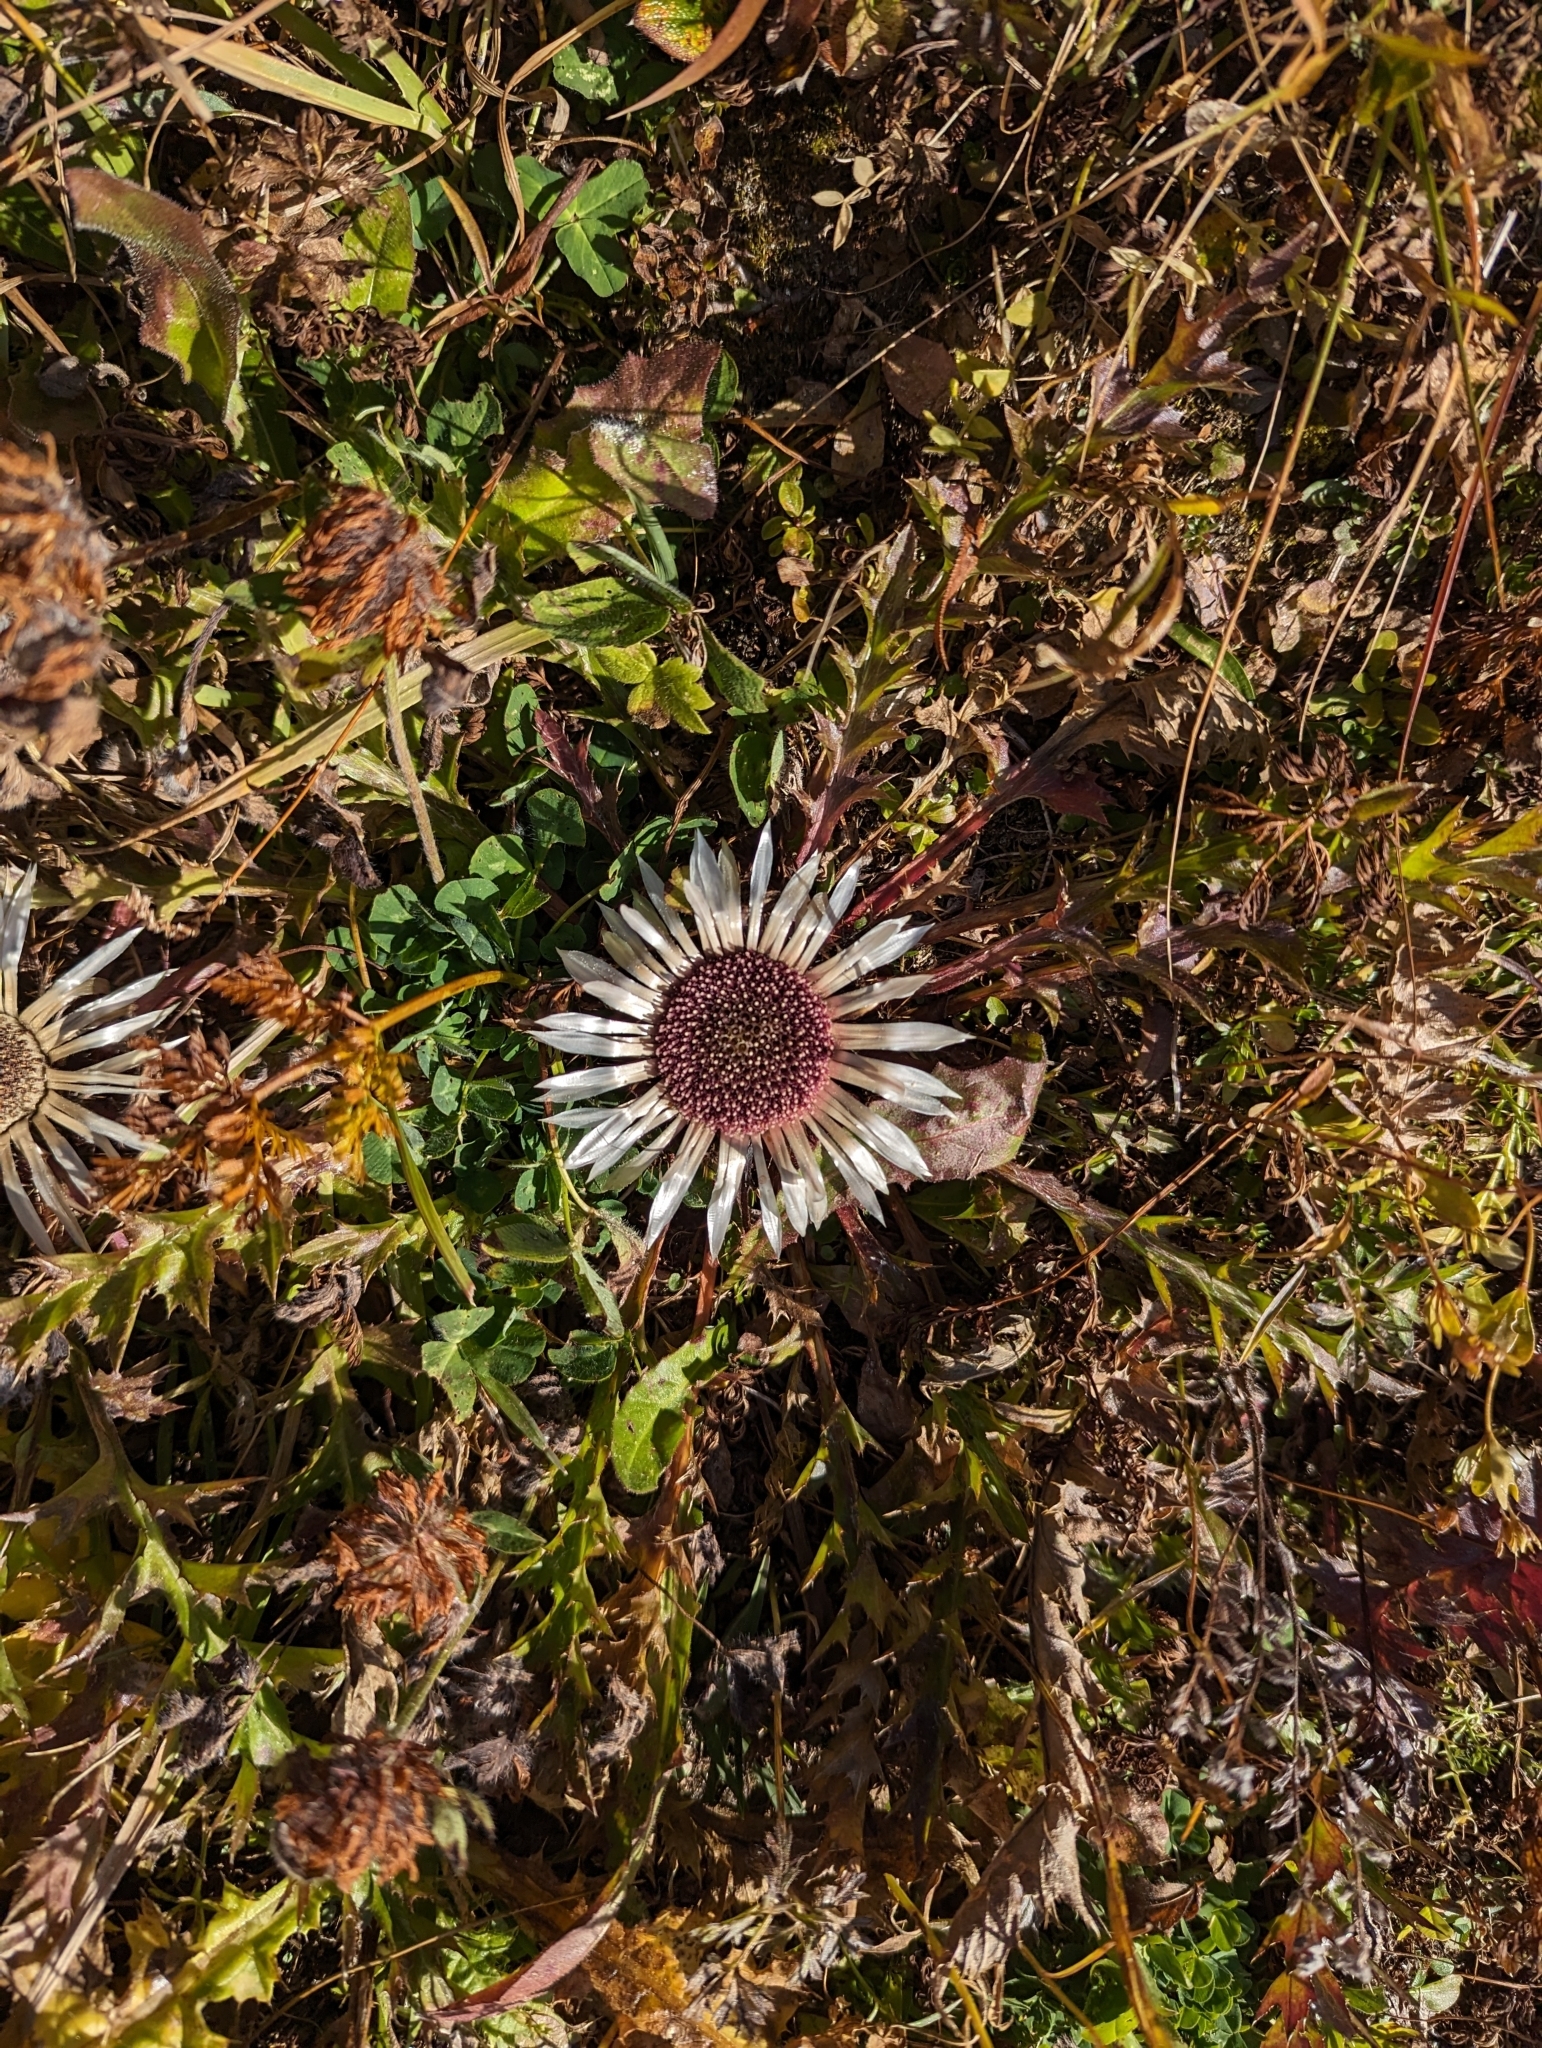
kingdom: Plantae
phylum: Tracheophyta
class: Magnoliopsida
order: Asterales
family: Asteraceae
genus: Carlina
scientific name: Carlina acaulis
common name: Stemless carline thistle
